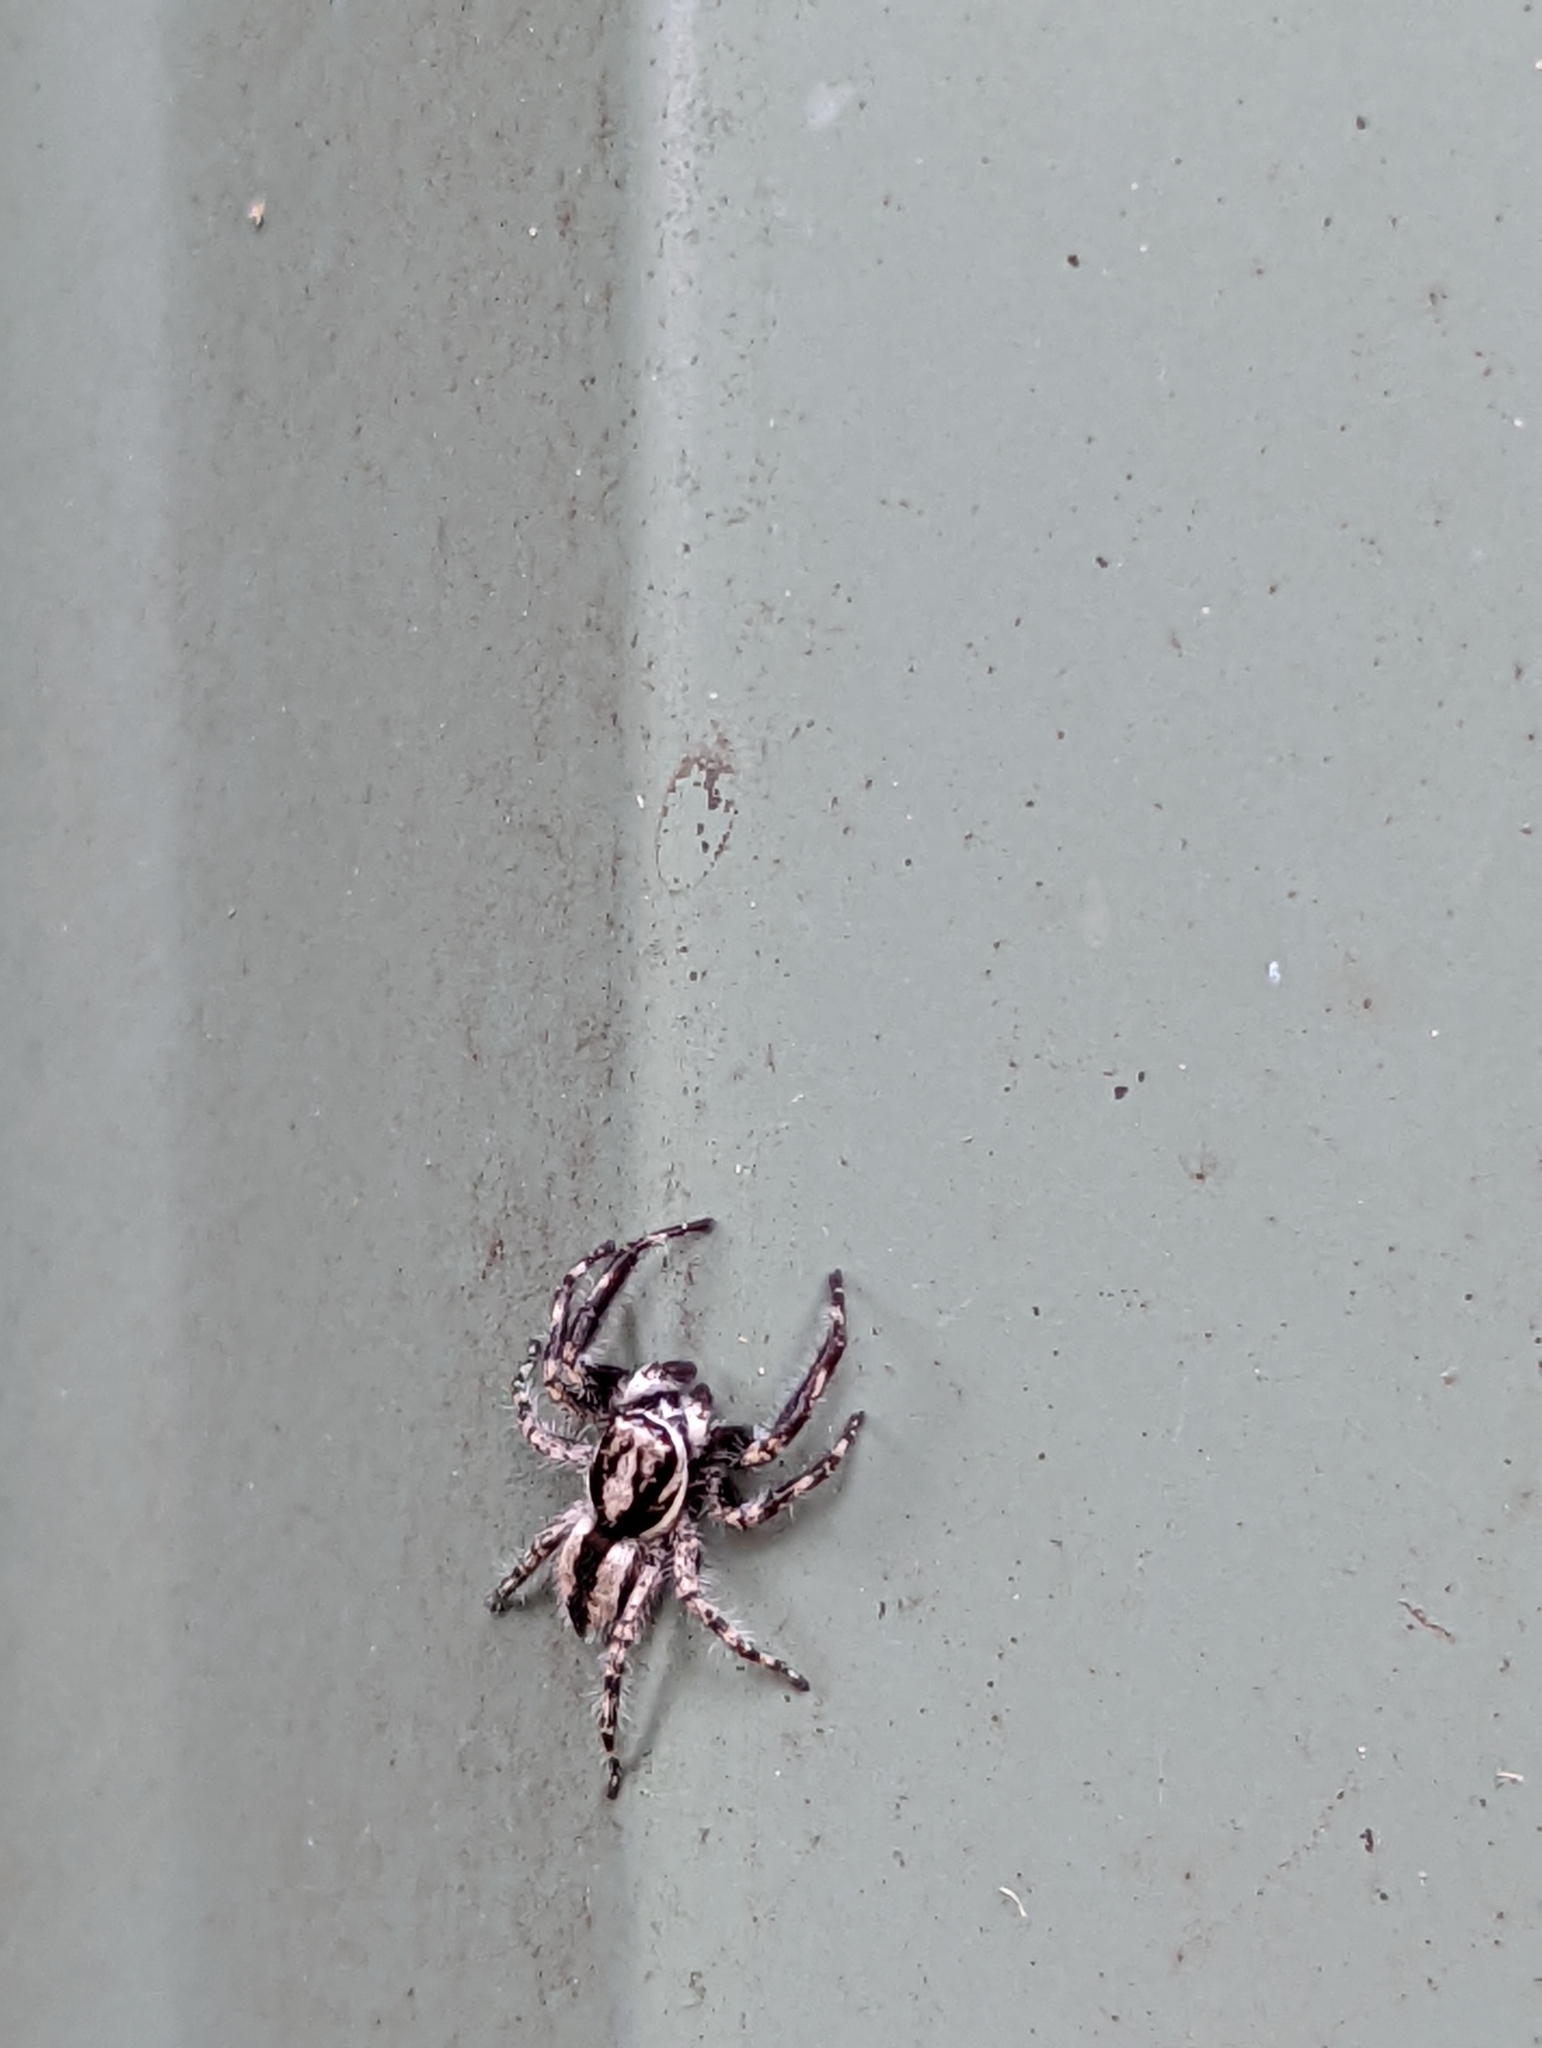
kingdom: Animalia
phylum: Arthropoda
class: Arachnida
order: Araneae
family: Salticidae
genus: Menemerus
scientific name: Menemerus bivittatus
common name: Gray wall jumper
